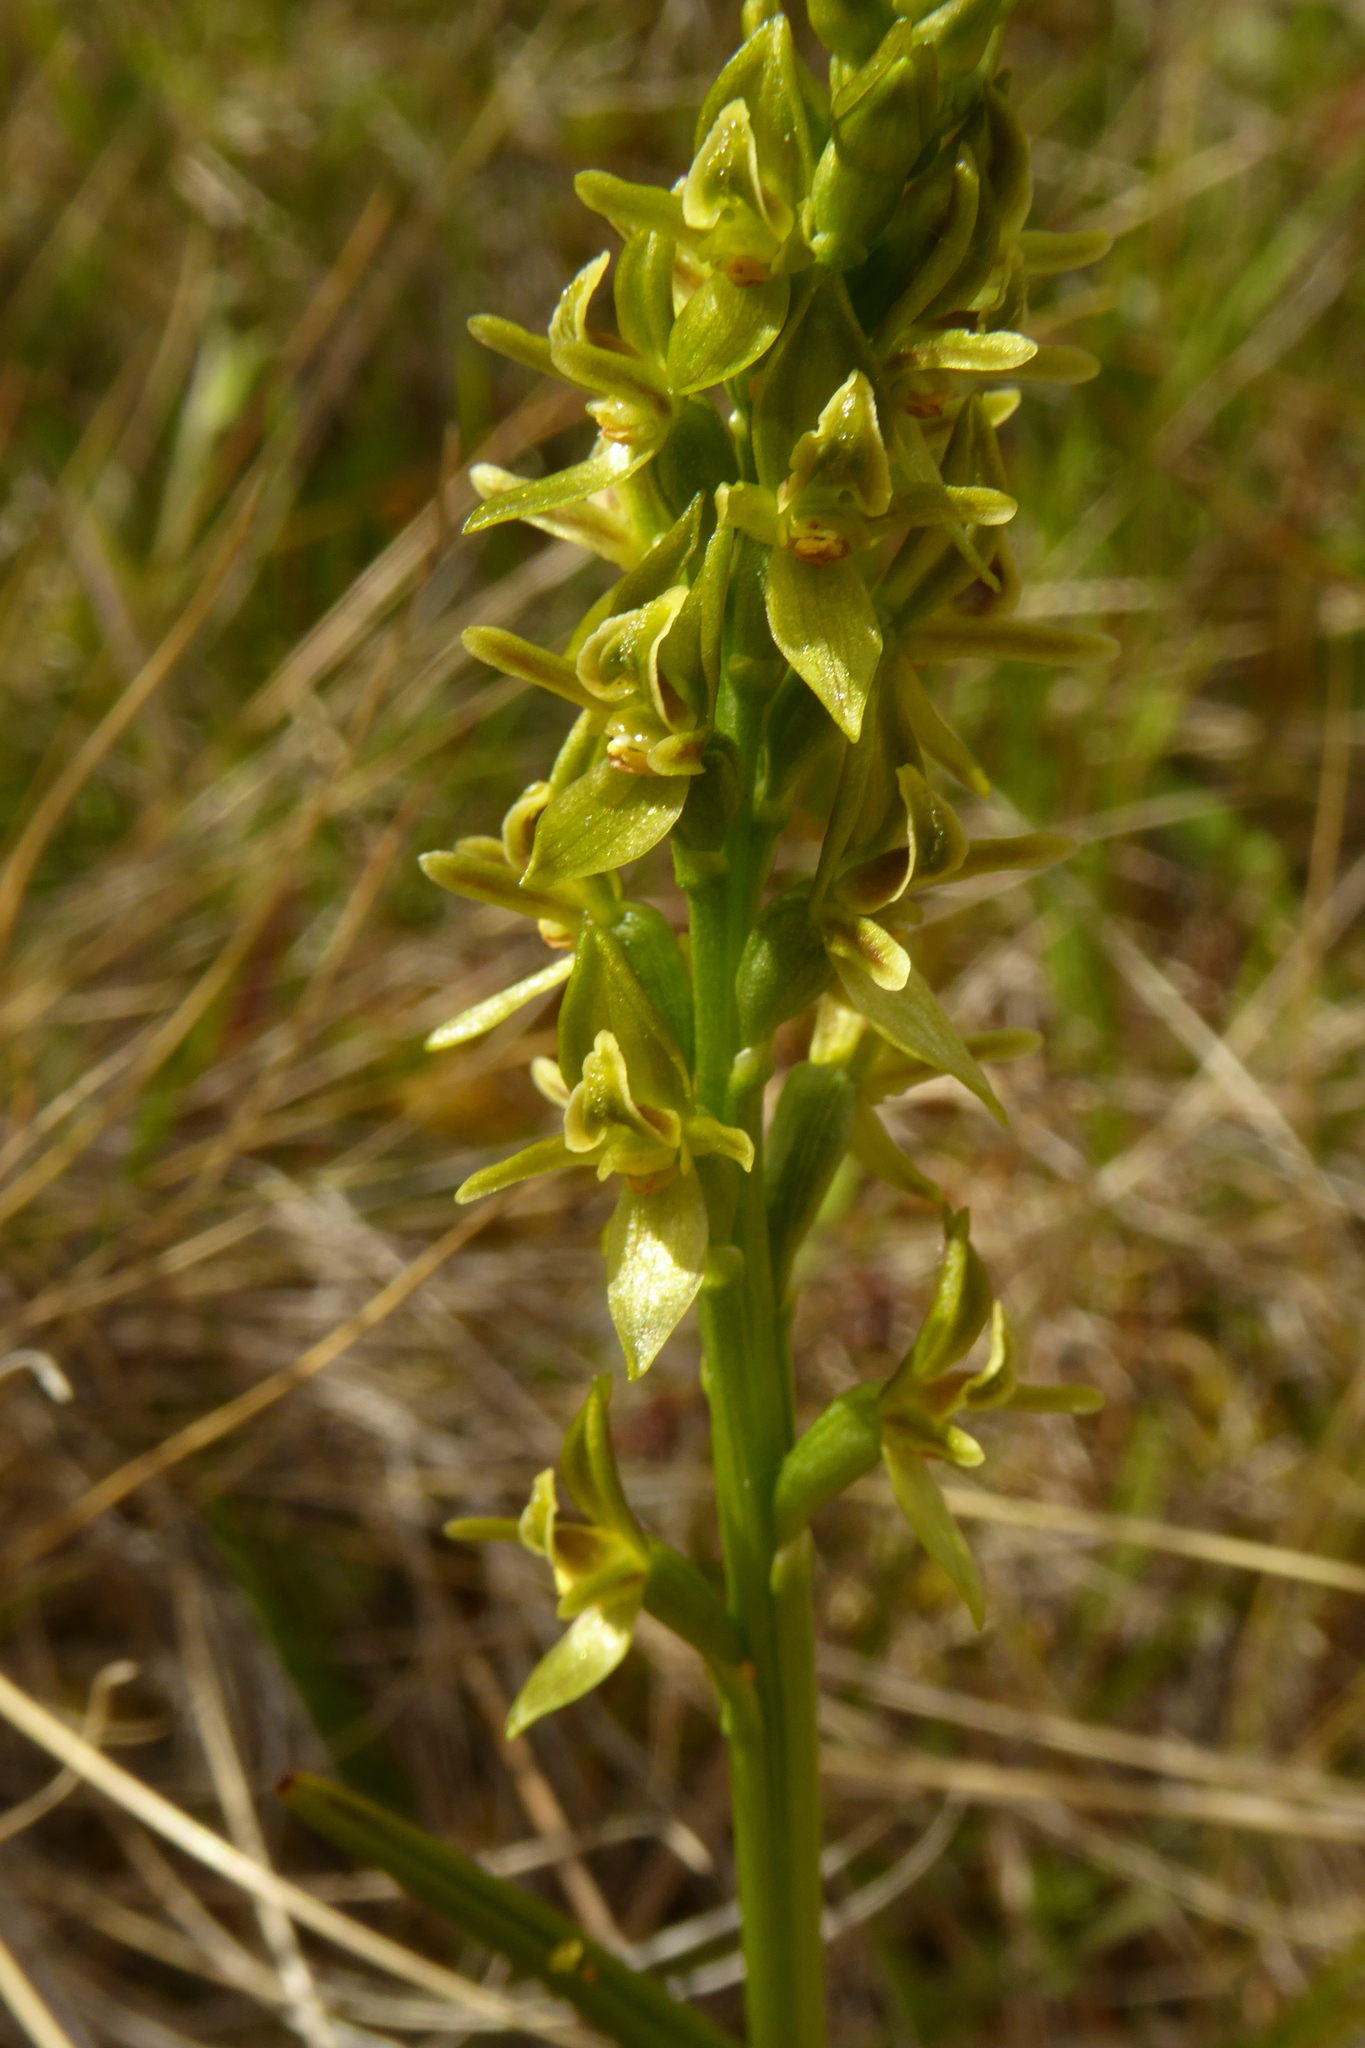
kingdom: Plantae
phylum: Tracheophyta
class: Liliopsida
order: Asparagales
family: Orchidaceae
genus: Prasophyllum
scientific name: Prasophyllum colensoi
